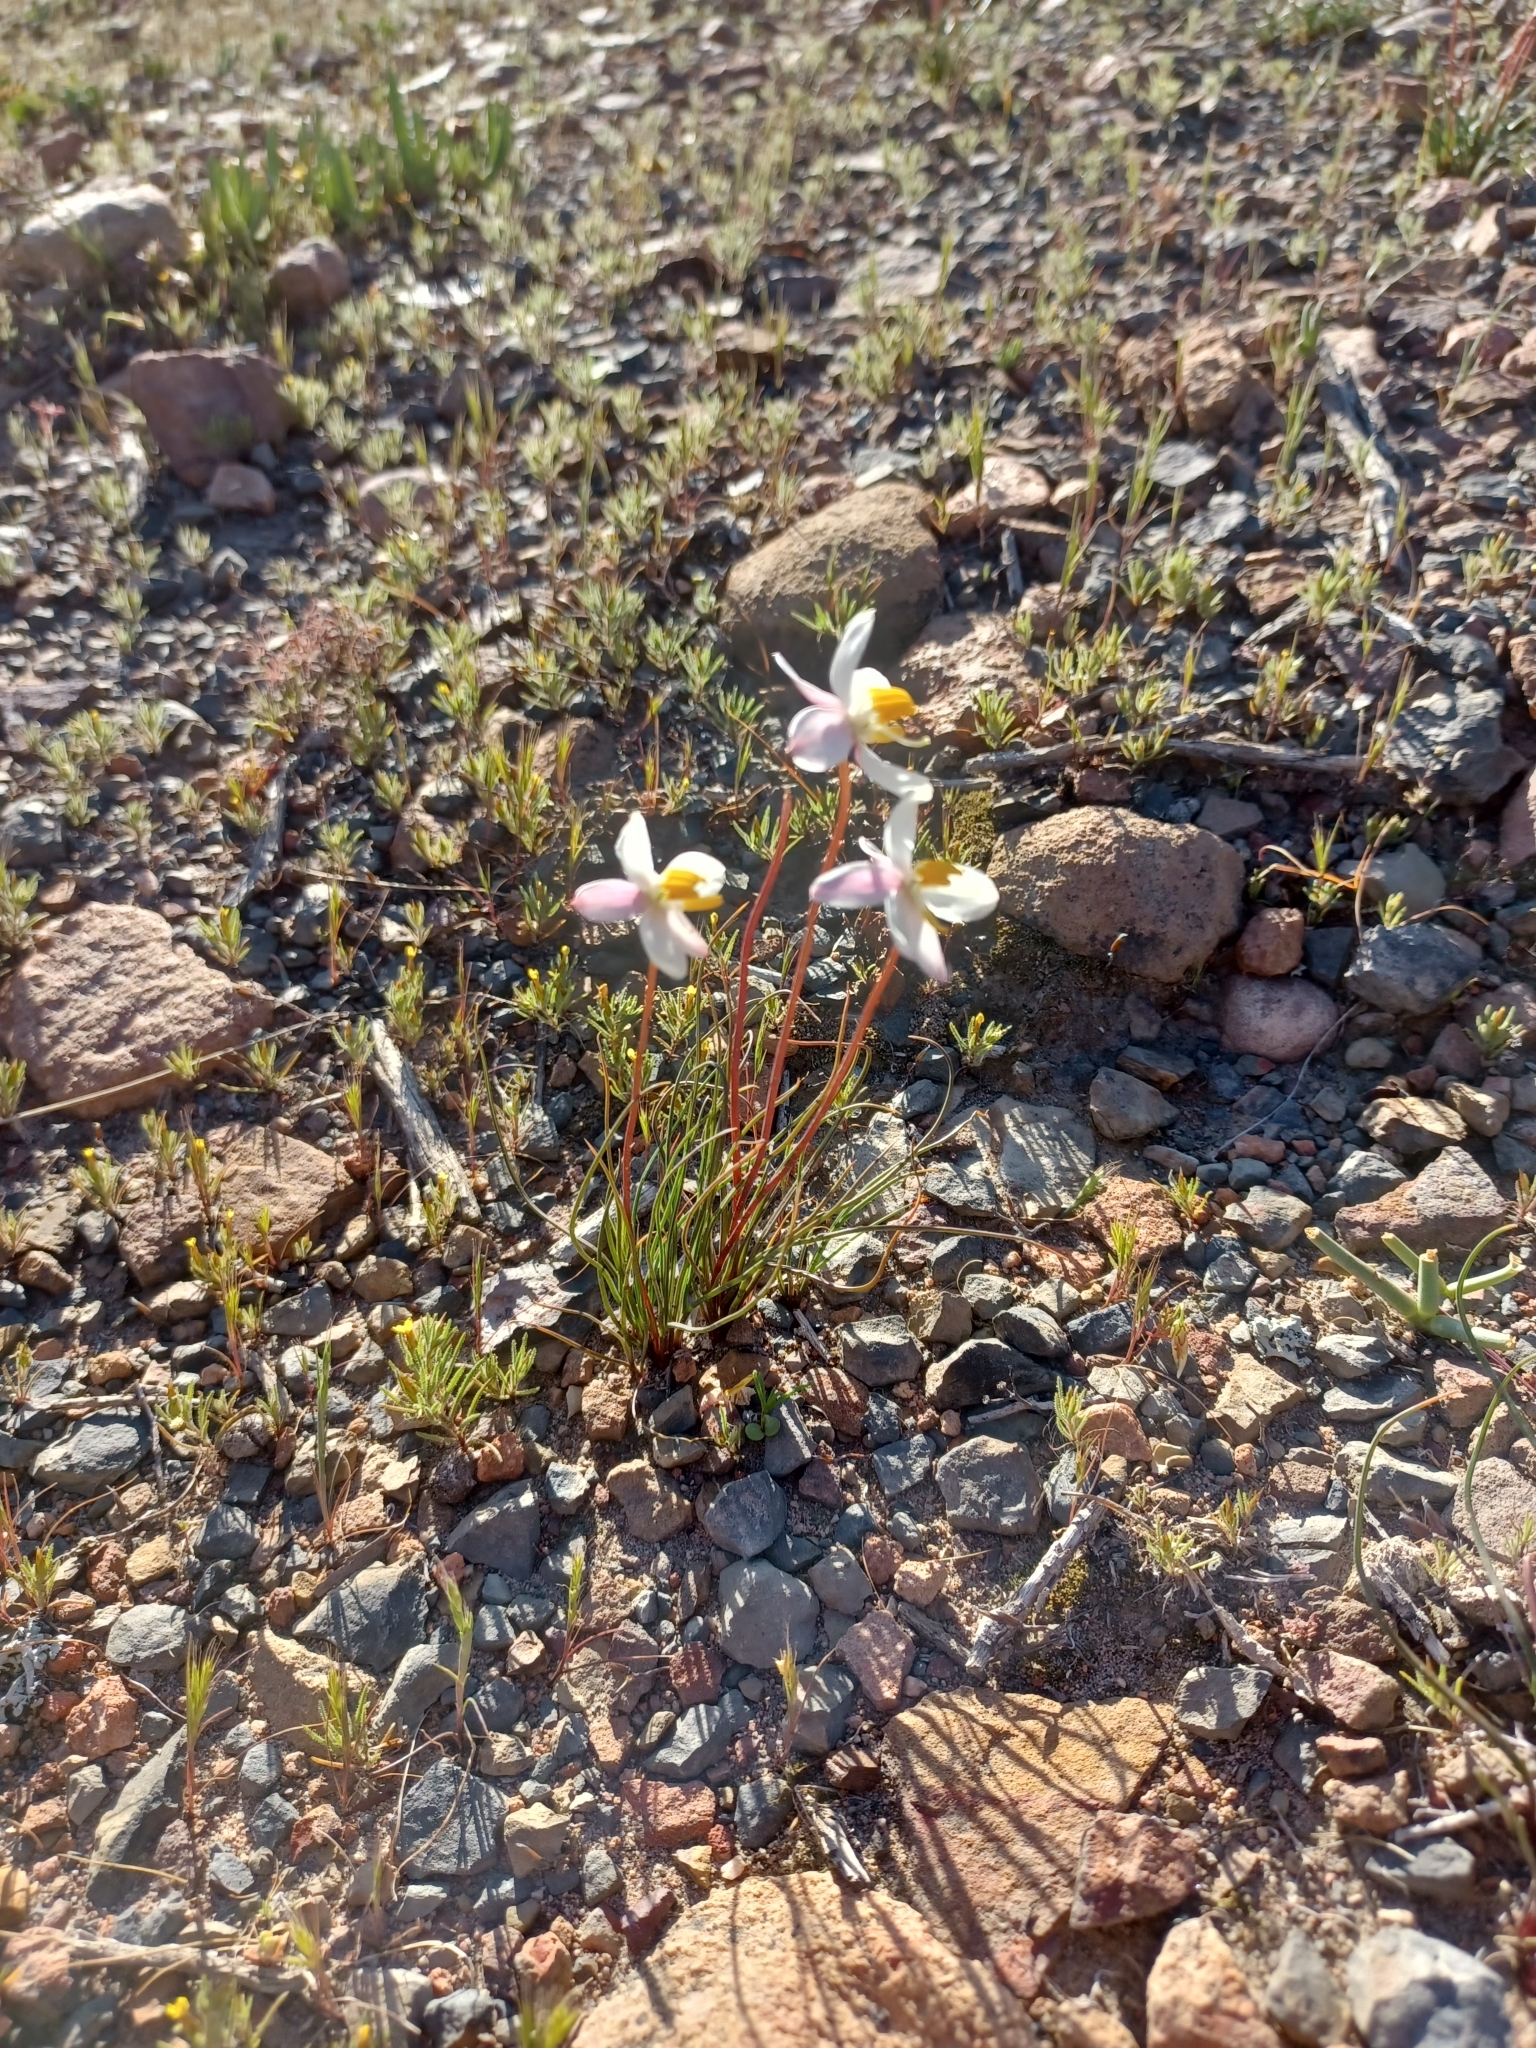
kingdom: Plantae
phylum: Tracheophyta
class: Liliopsida
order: Asparagales
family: Tecophilaeaceae
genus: Cyanella
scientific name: Cyanella alba
